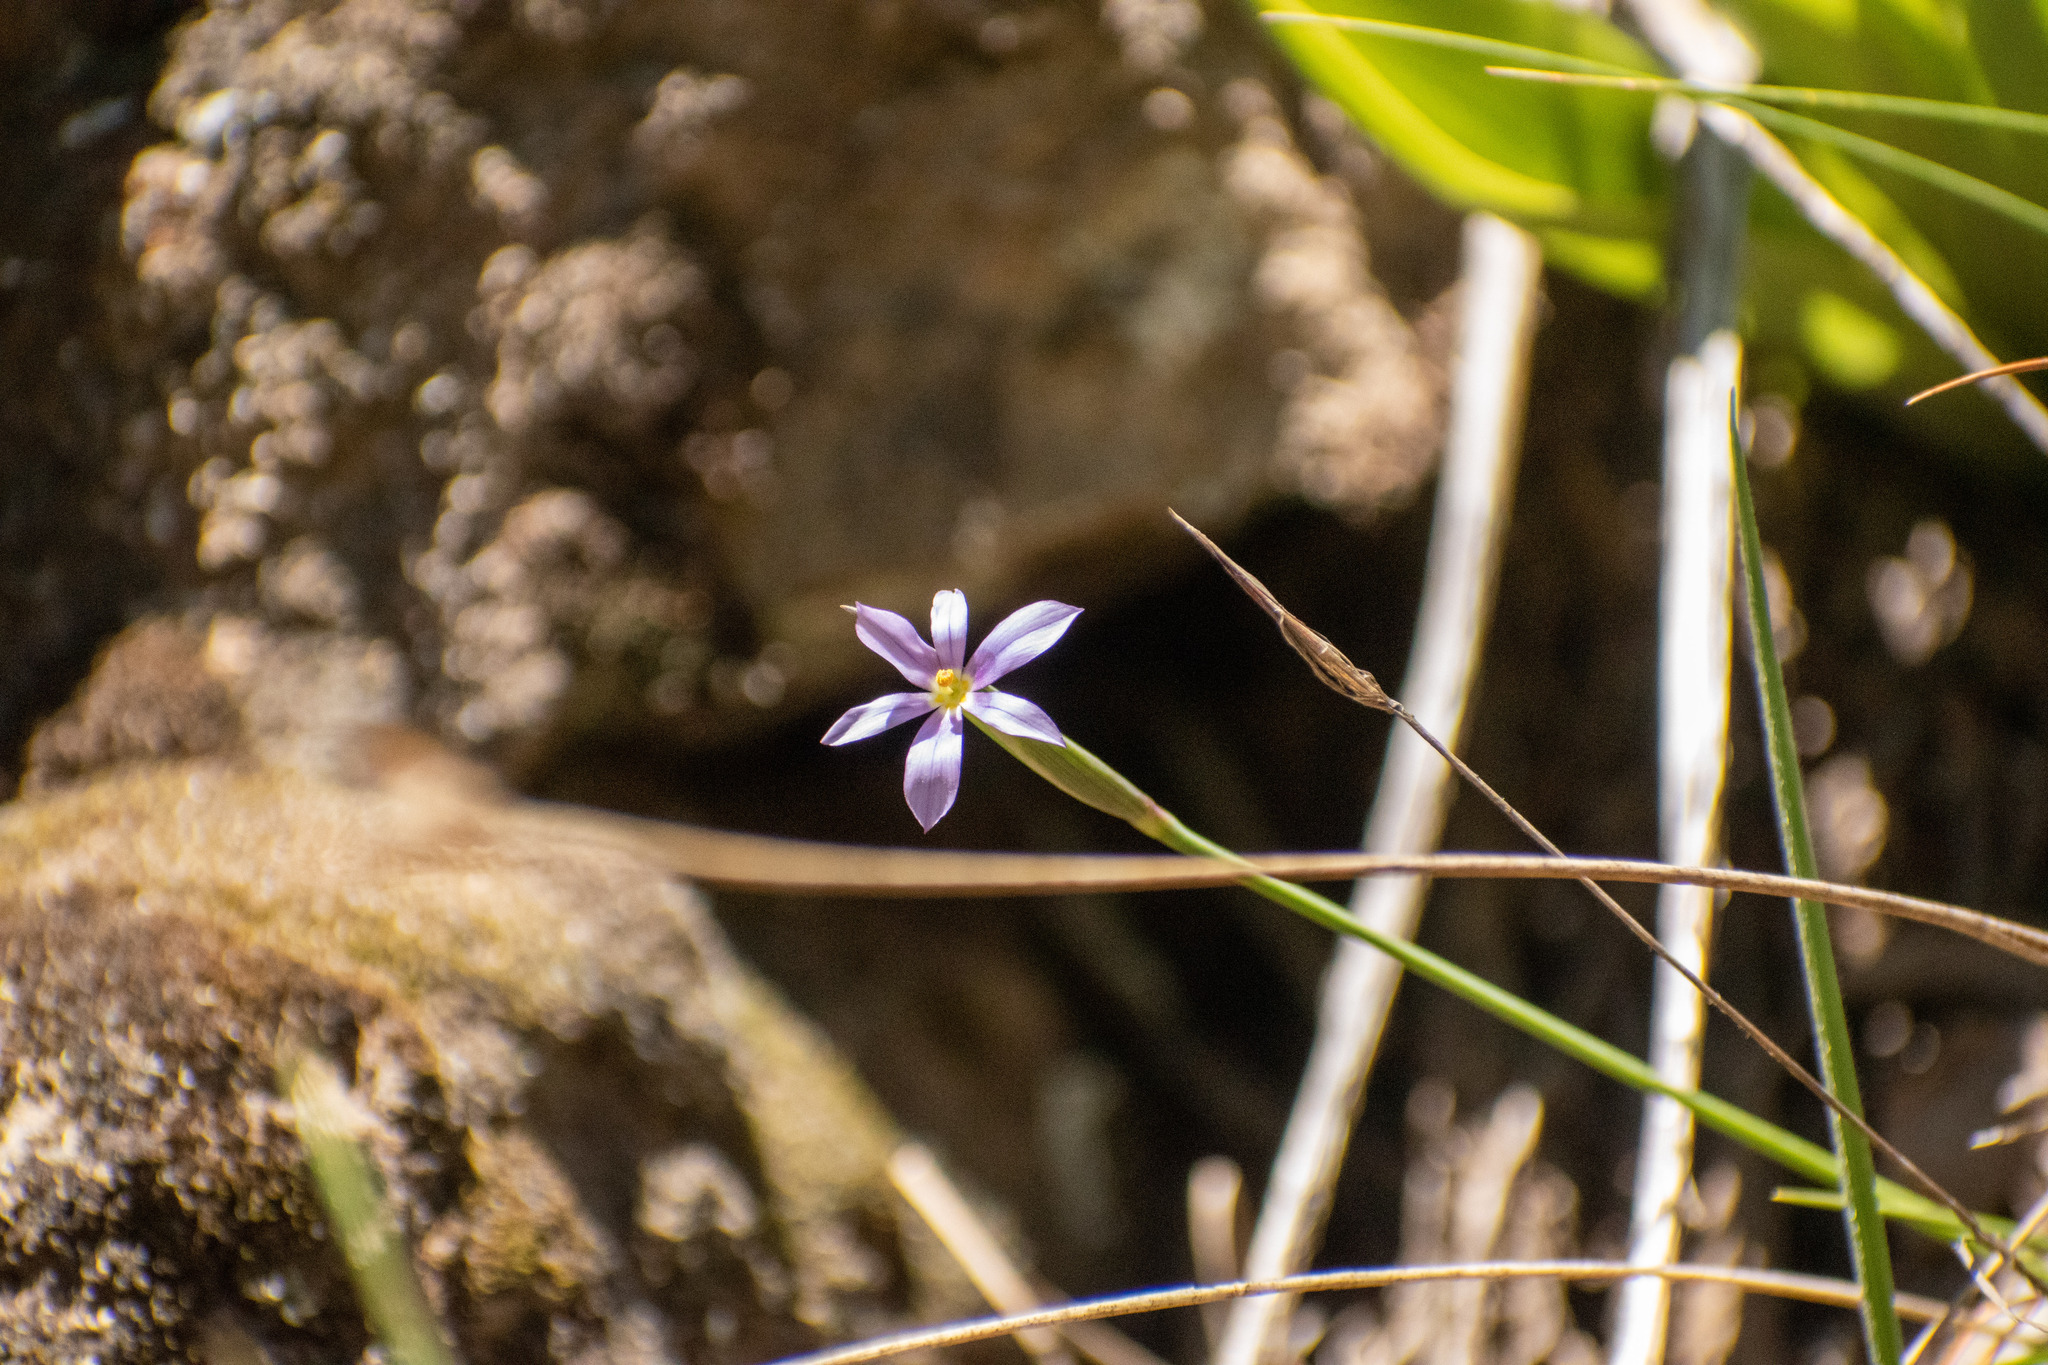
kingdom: Plantae
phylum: Tracheophyta
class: Liliopsida
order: Asparagales
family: Iridaceae
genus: Solenomelus
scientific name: Solenomelus segethi
